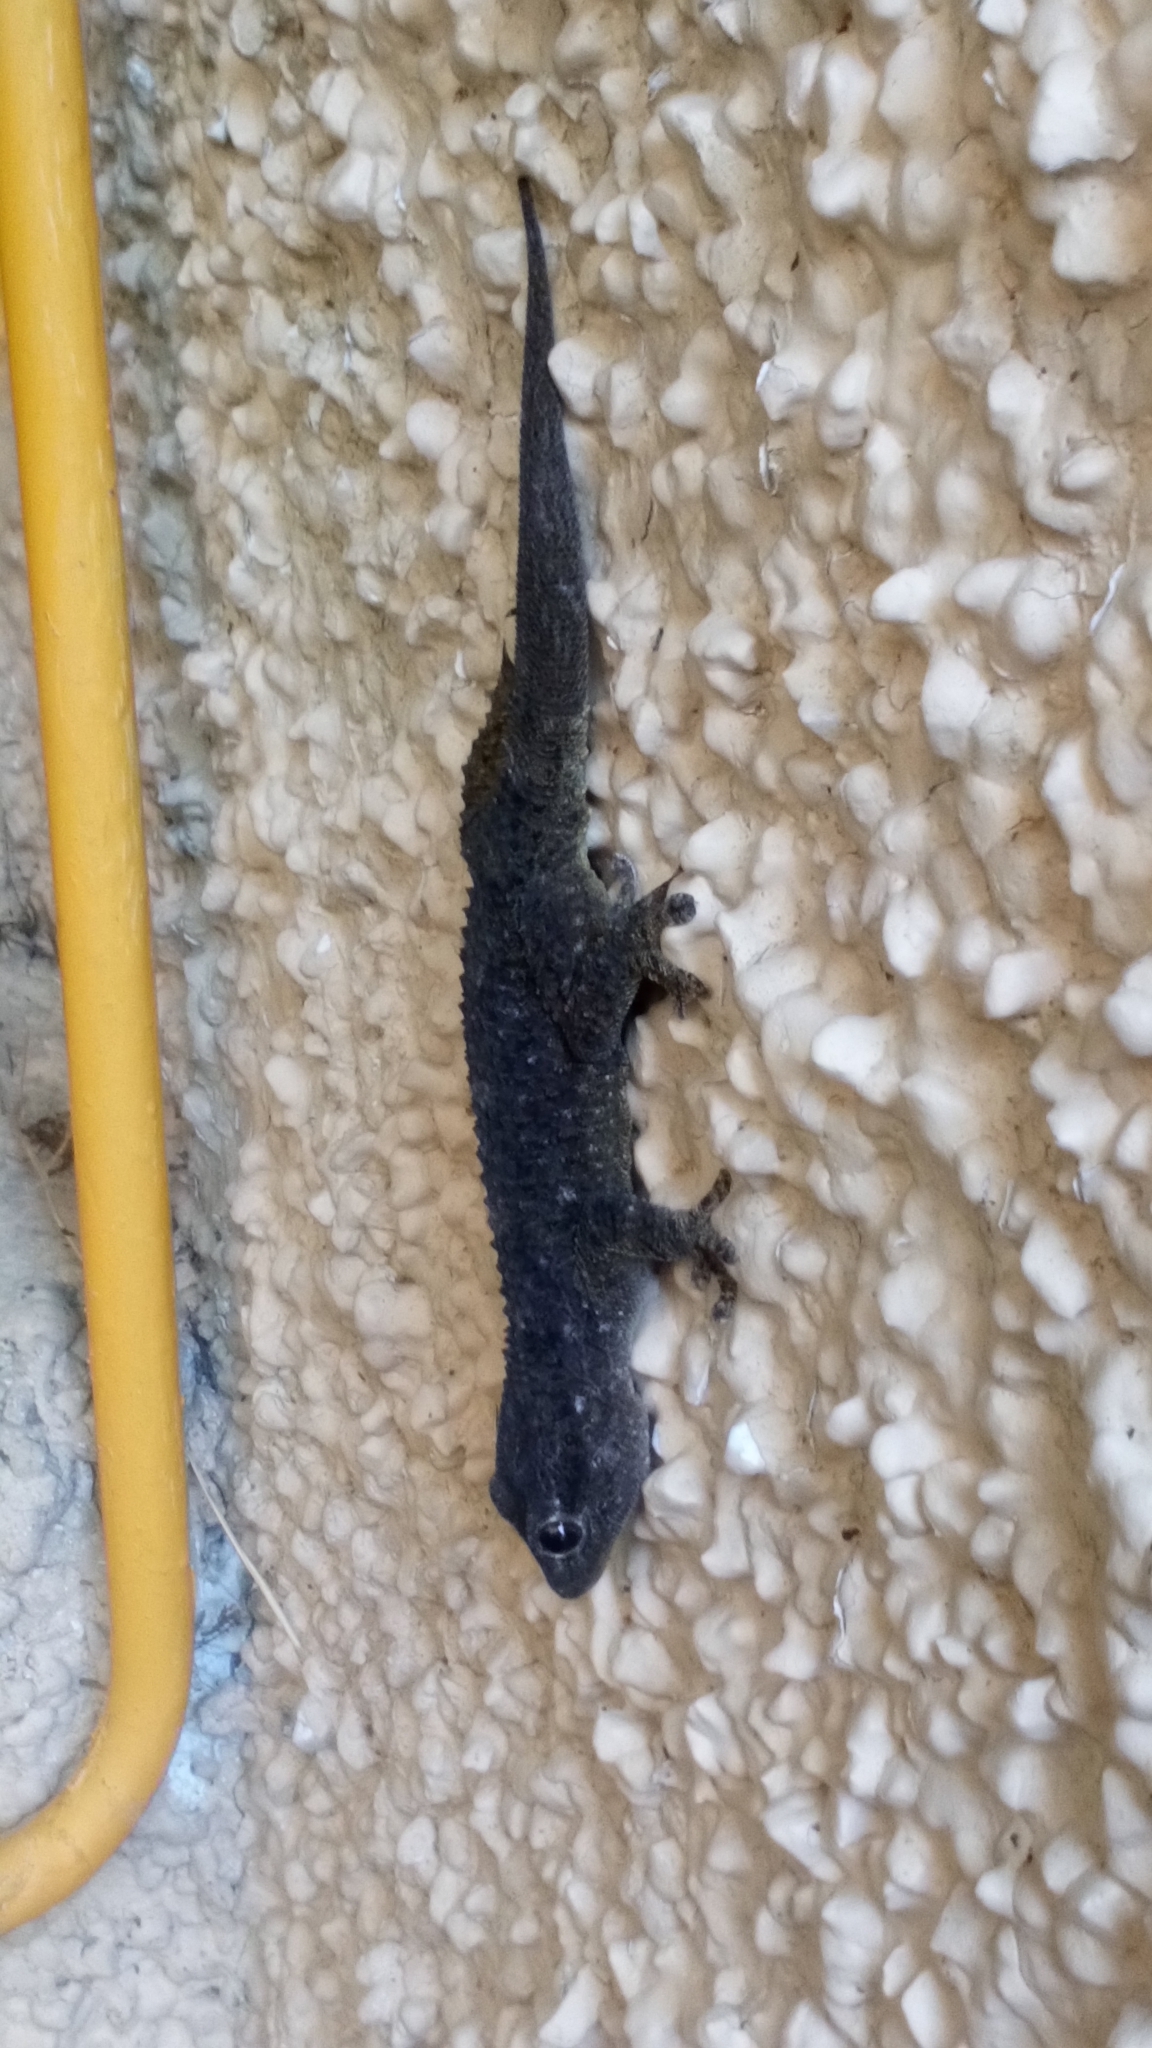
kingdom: Animalia
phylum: Chordata
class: Squamata
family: Phyllodactylidae
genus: Tarentola
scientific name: Tarentola mauritanica
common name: Moorish gecko
